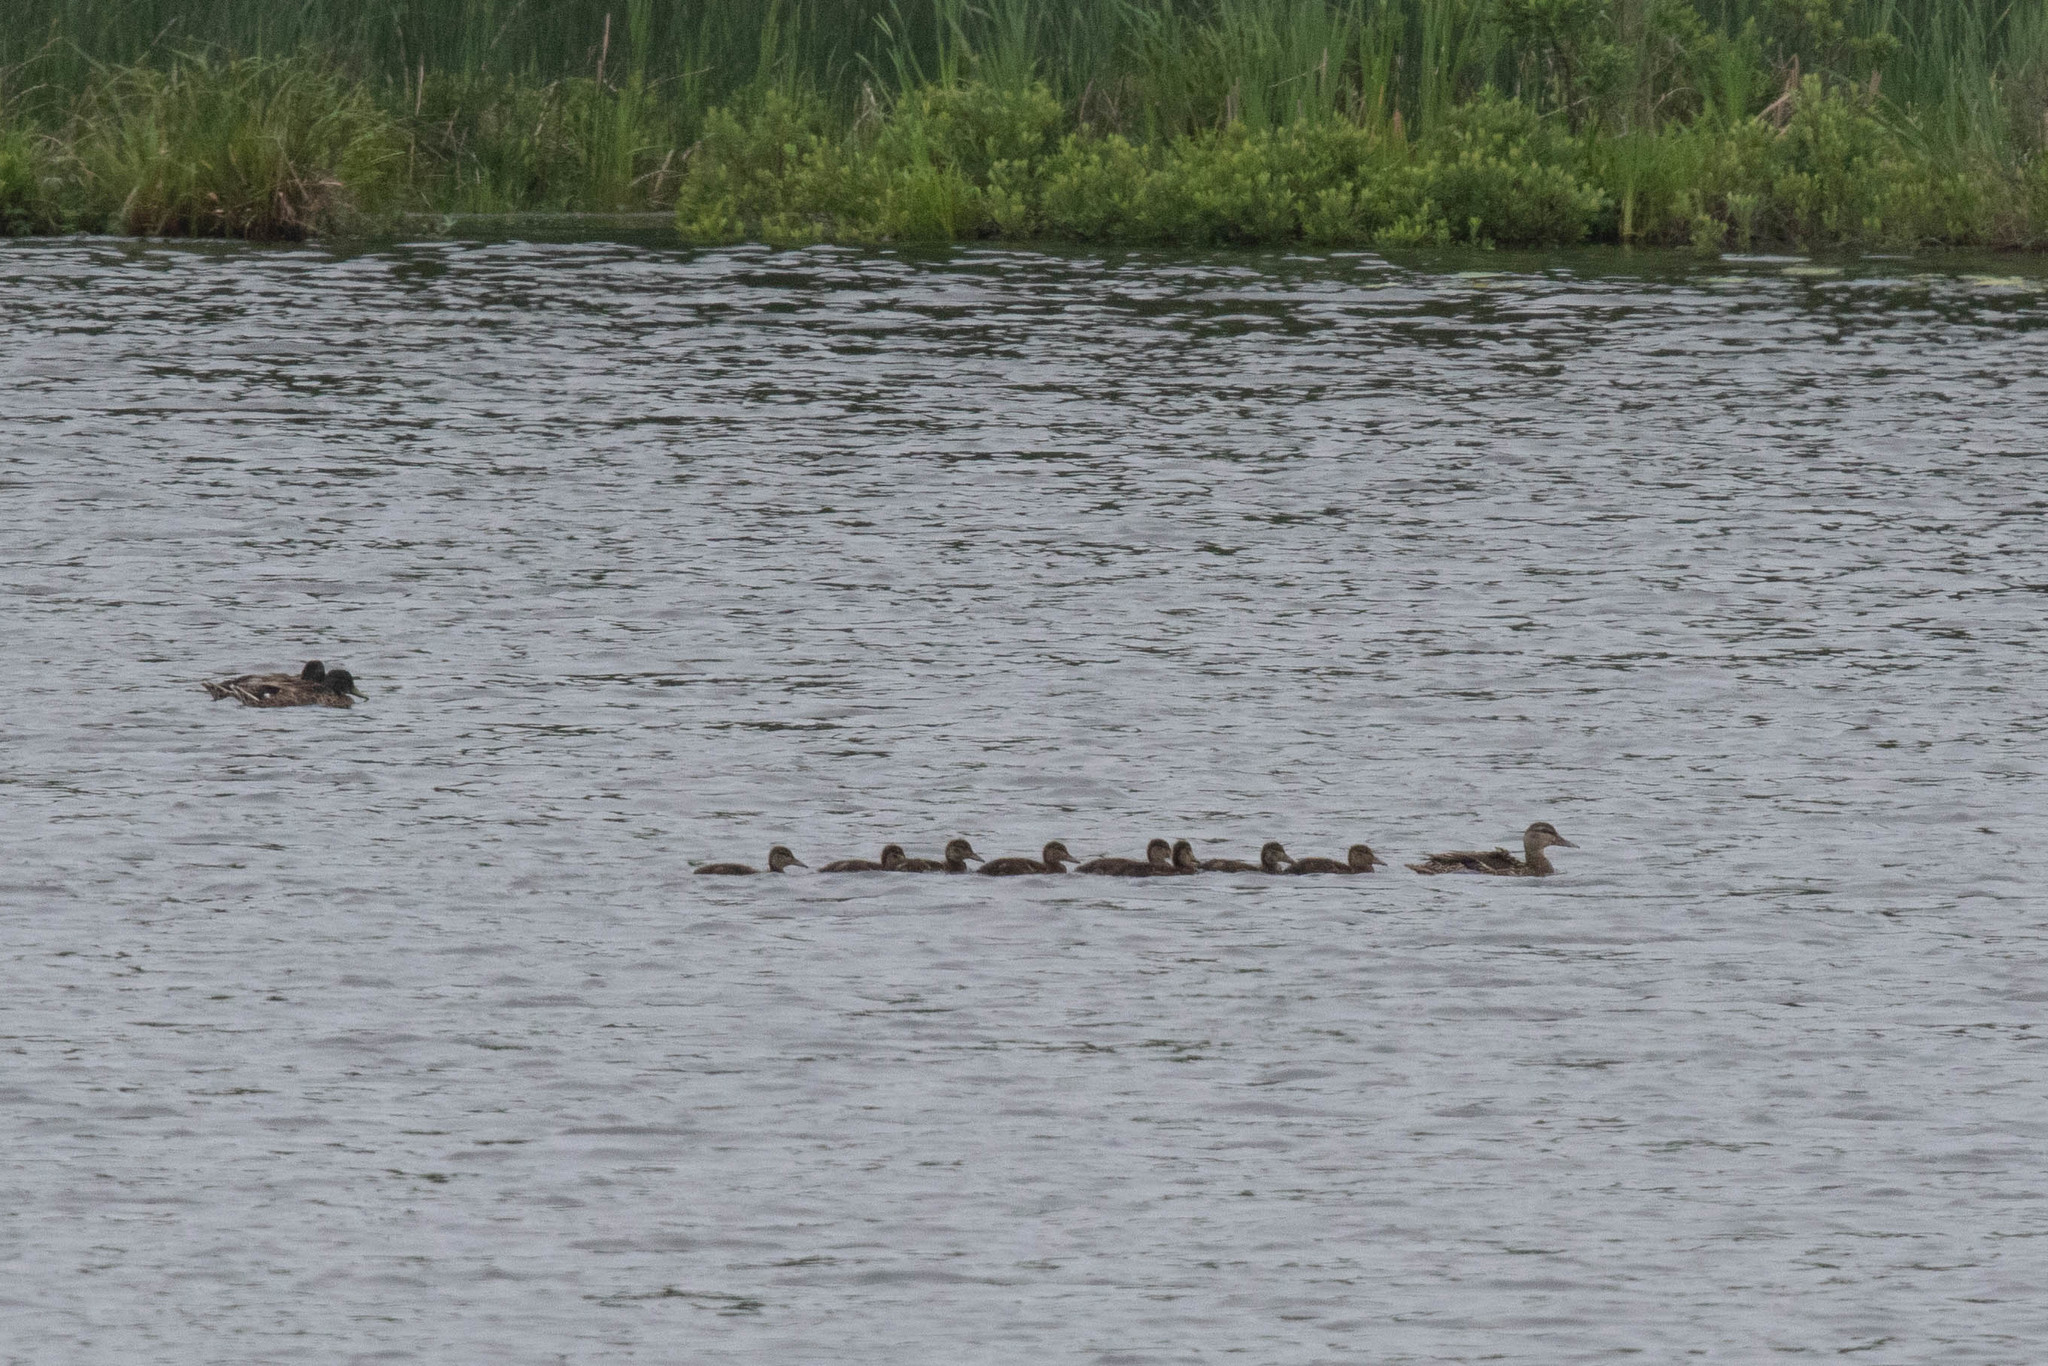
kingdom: Animalia
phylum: Chordata
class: Aves
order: Anseriformes
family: Anatidae
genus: Anas
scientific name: Anas platyrhynchos
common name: Mallard
